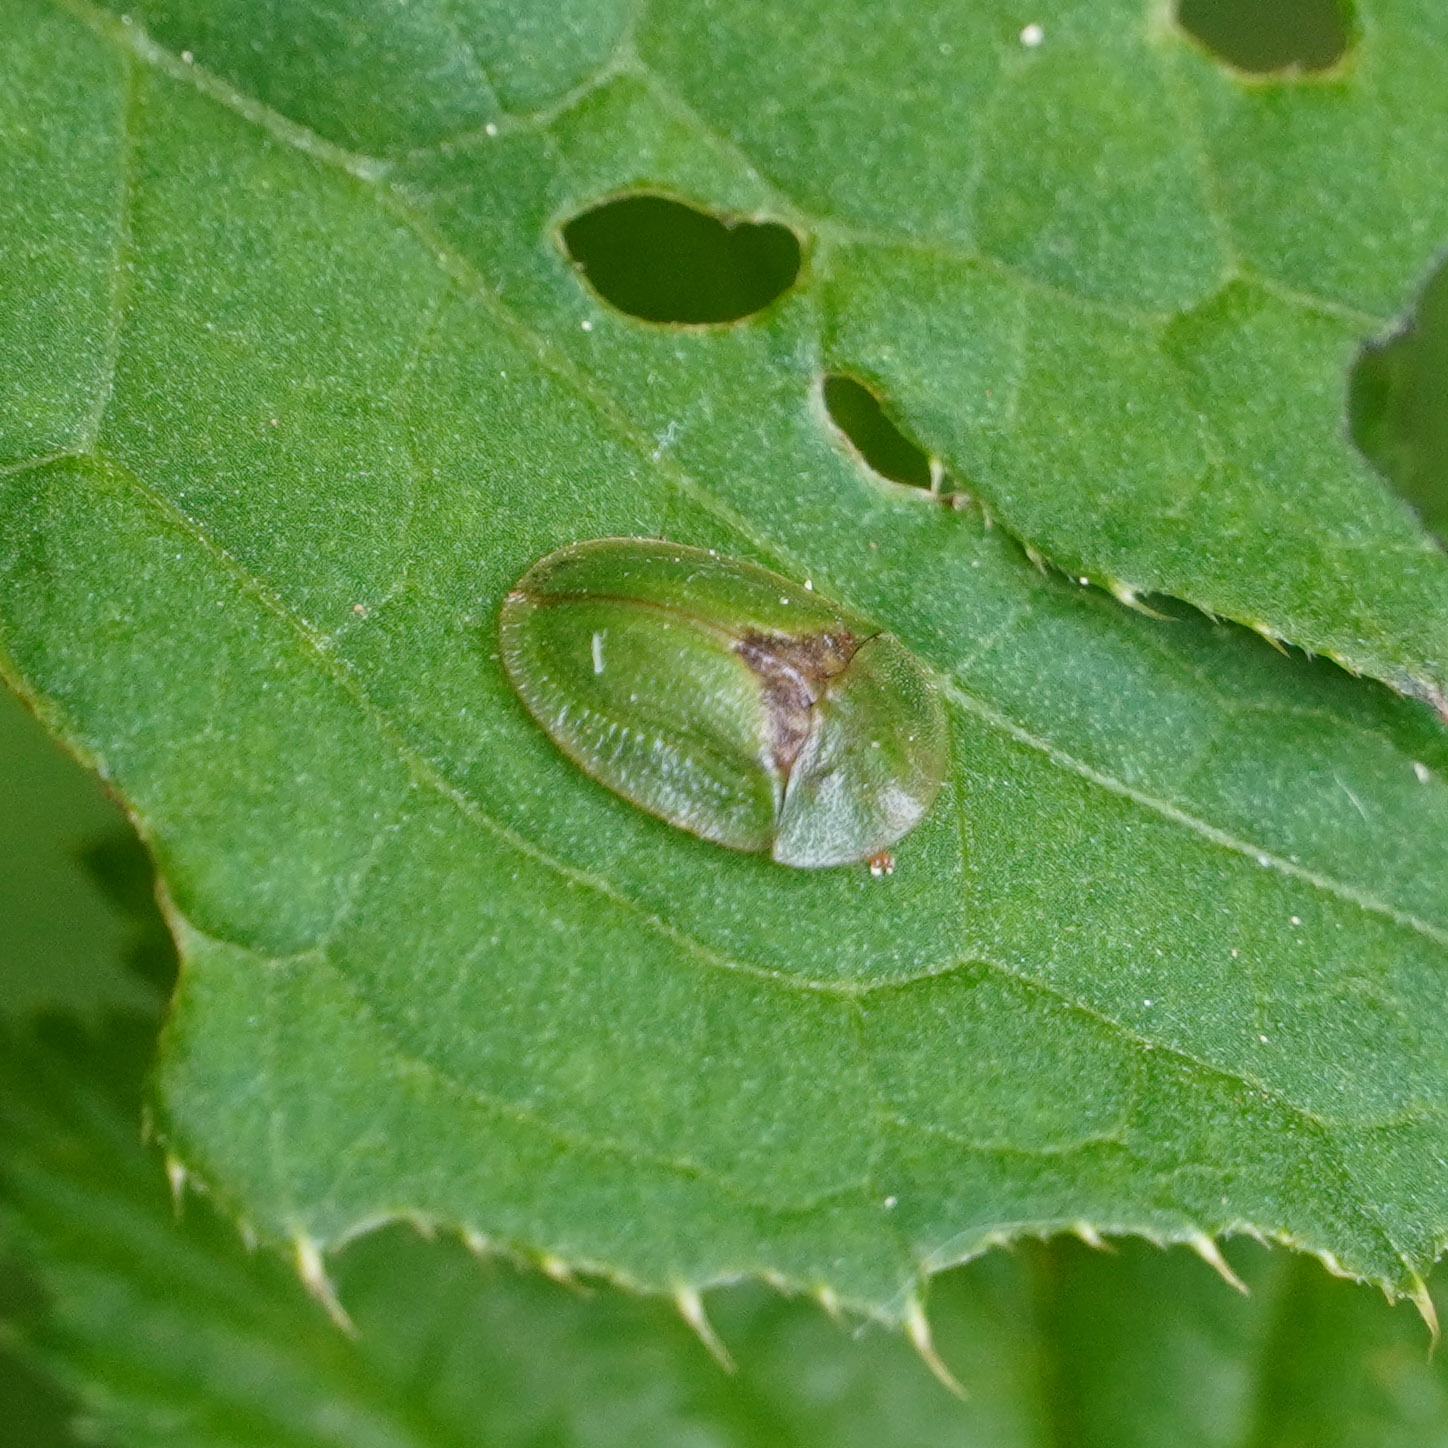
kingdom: Animalia
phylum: Arthropoda
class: Insecta
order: Coleoptera
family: Chrysomelidae
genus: Cassida
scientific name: Cassida rubiginosa
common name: Thistle tortoise beetle
